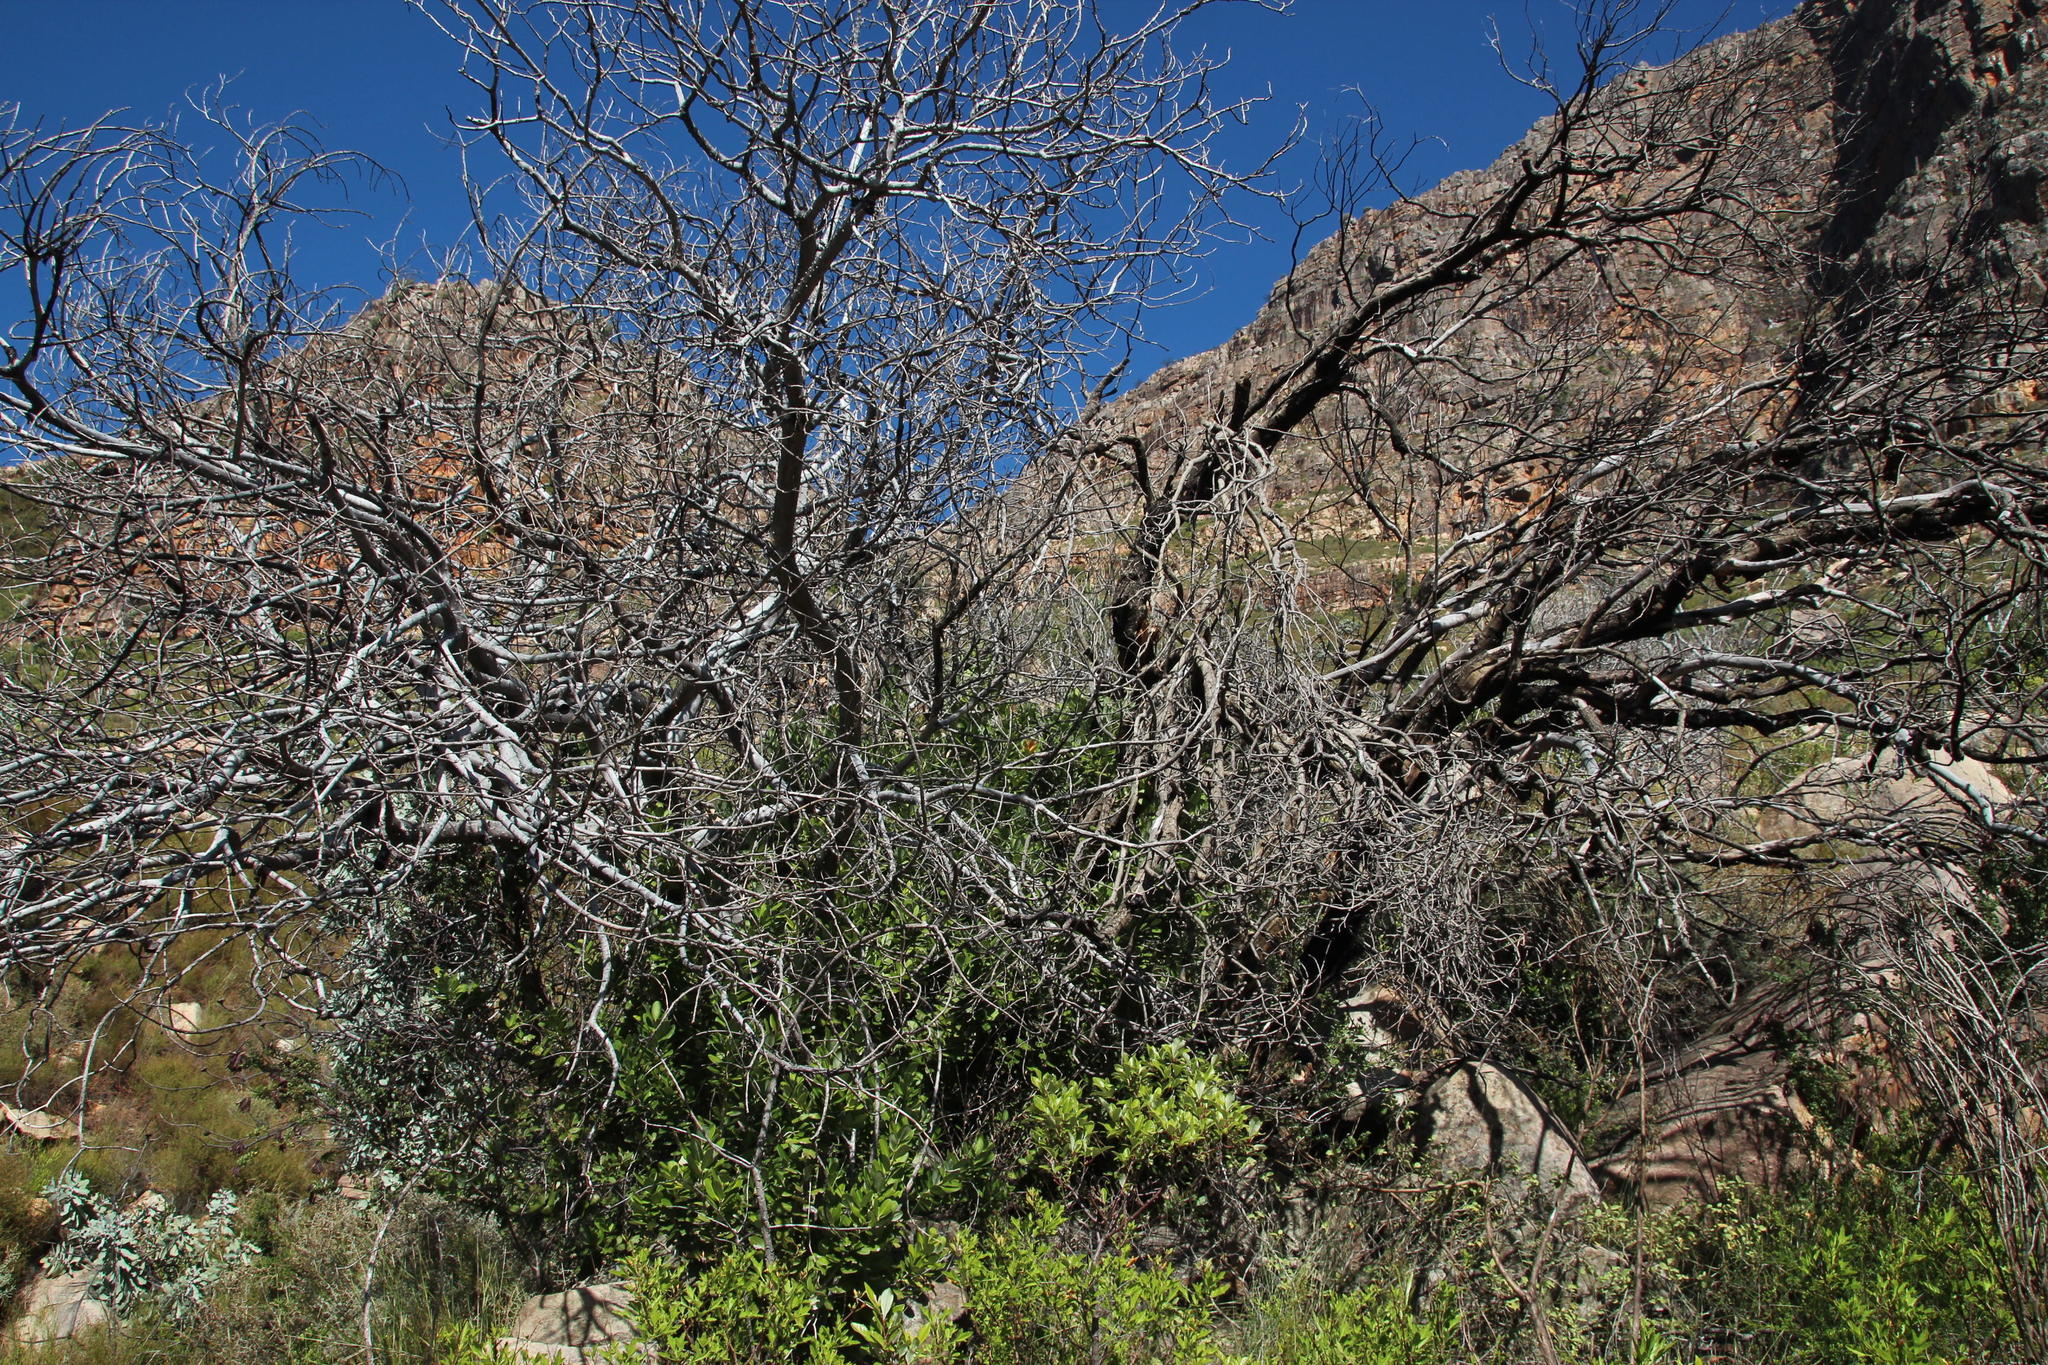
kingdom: Plantae
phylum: Tracheophyta
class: Magnoliopsida
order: Sapindales
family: Anacardiaceae
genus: Heeria
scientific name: Heeria argentea
